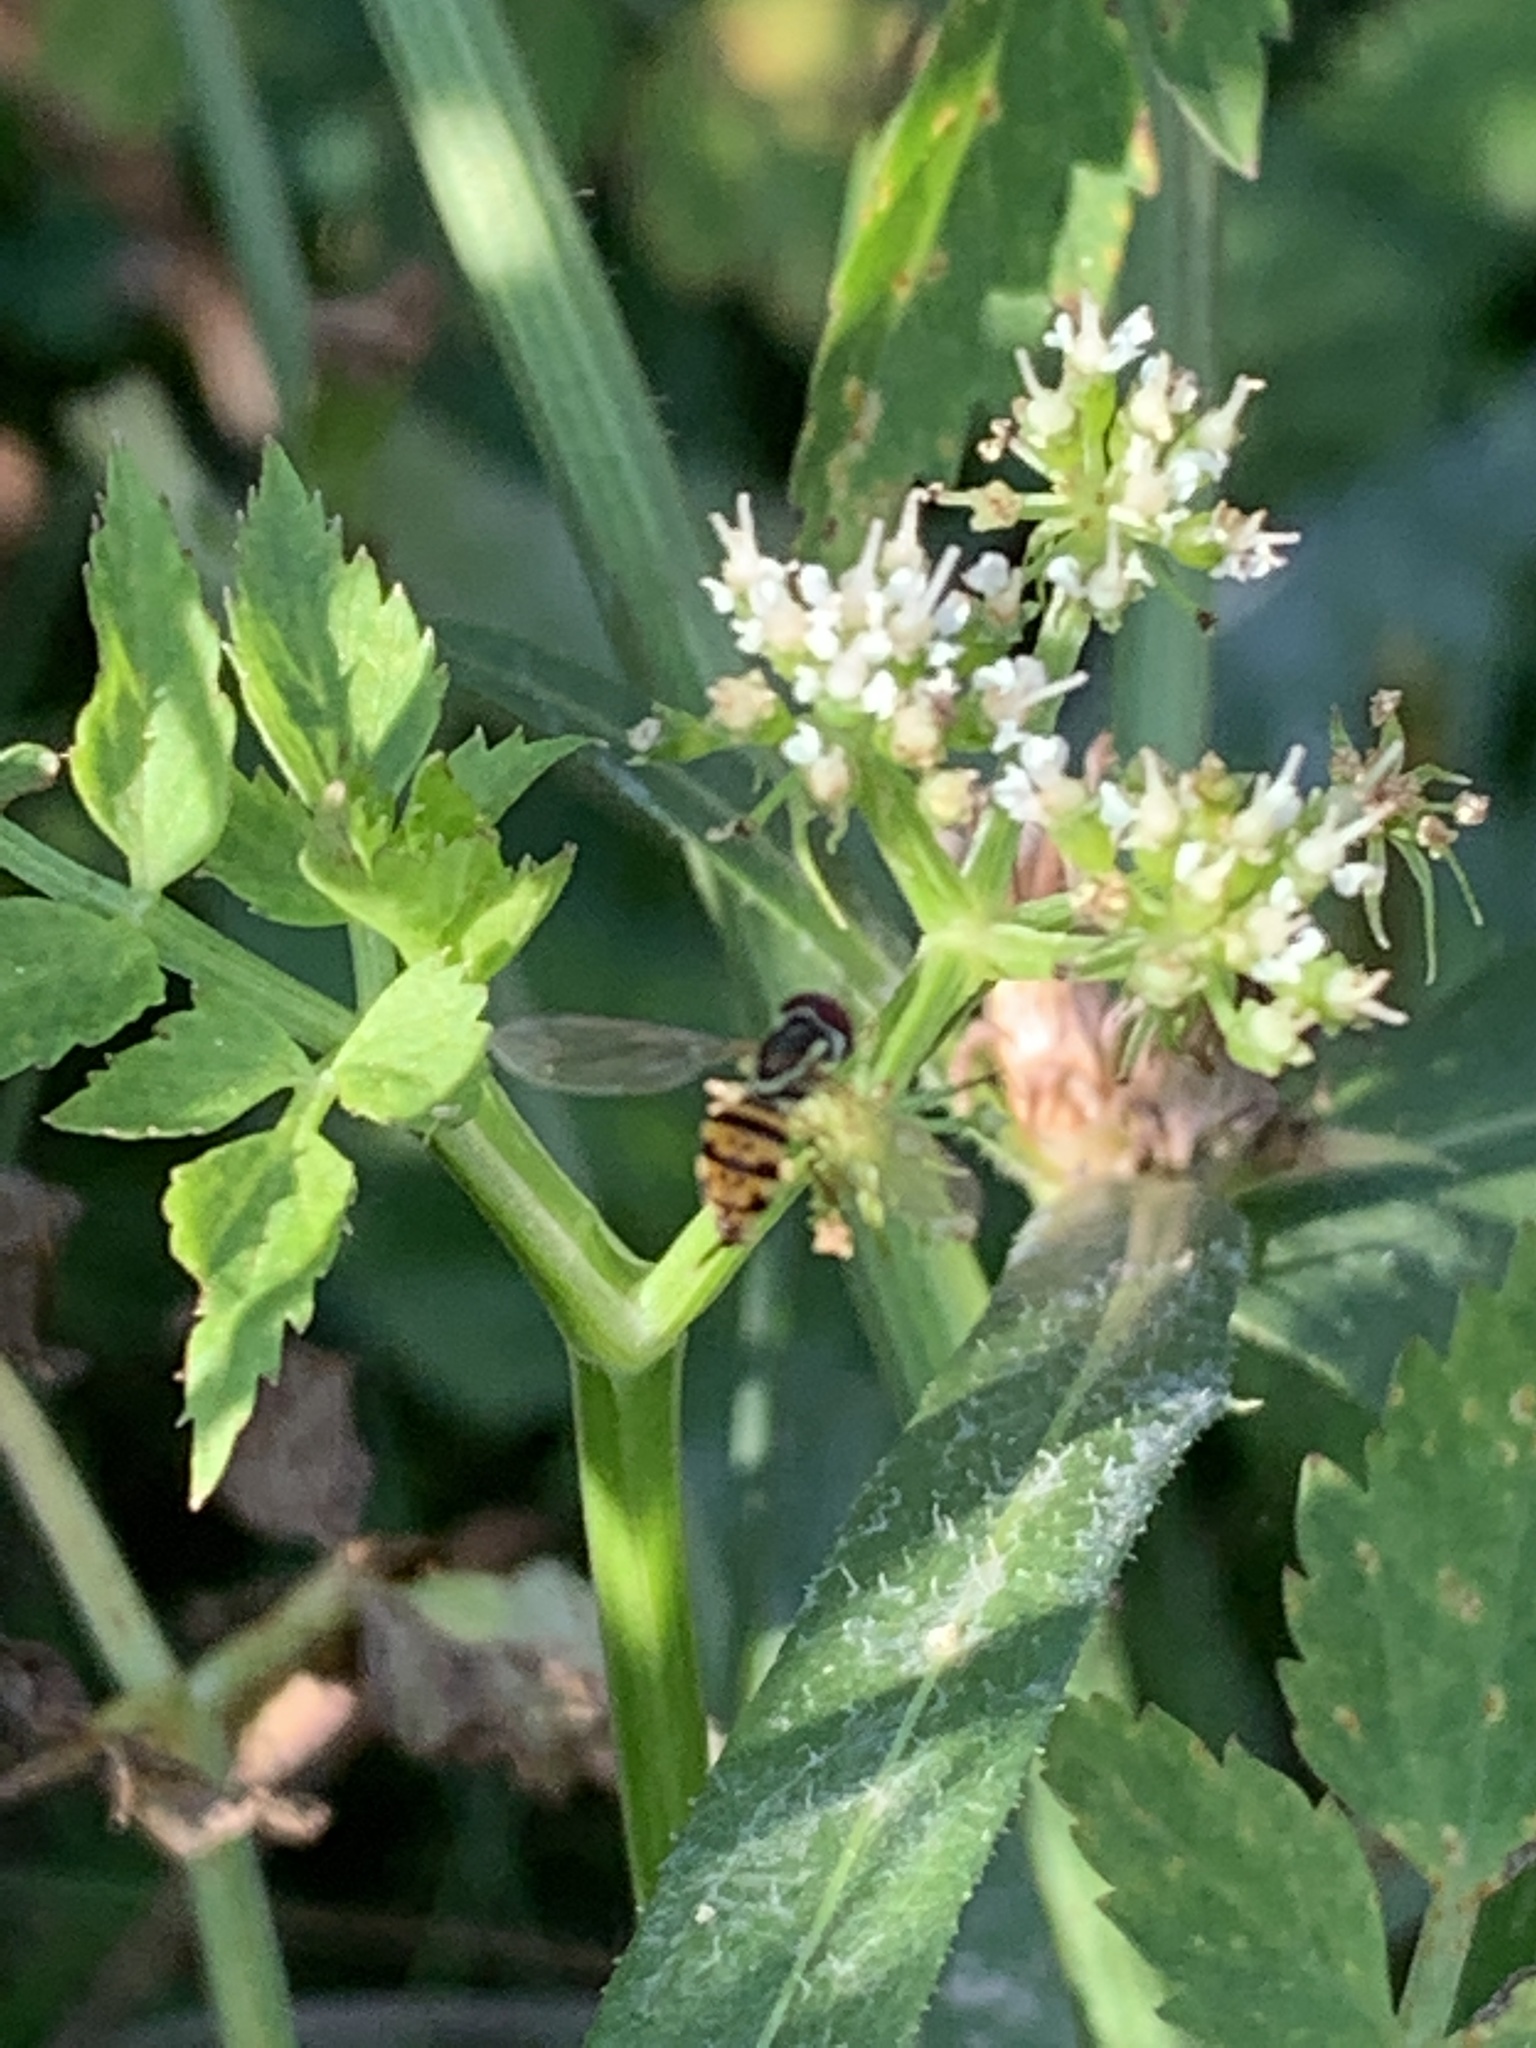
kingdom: Animalia
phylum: Arthropoda
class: Insecta
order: Diptera
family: Syrphidae
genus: Toxomerus
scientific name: Toxomerus geminatus
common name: Eastern calligrapher
